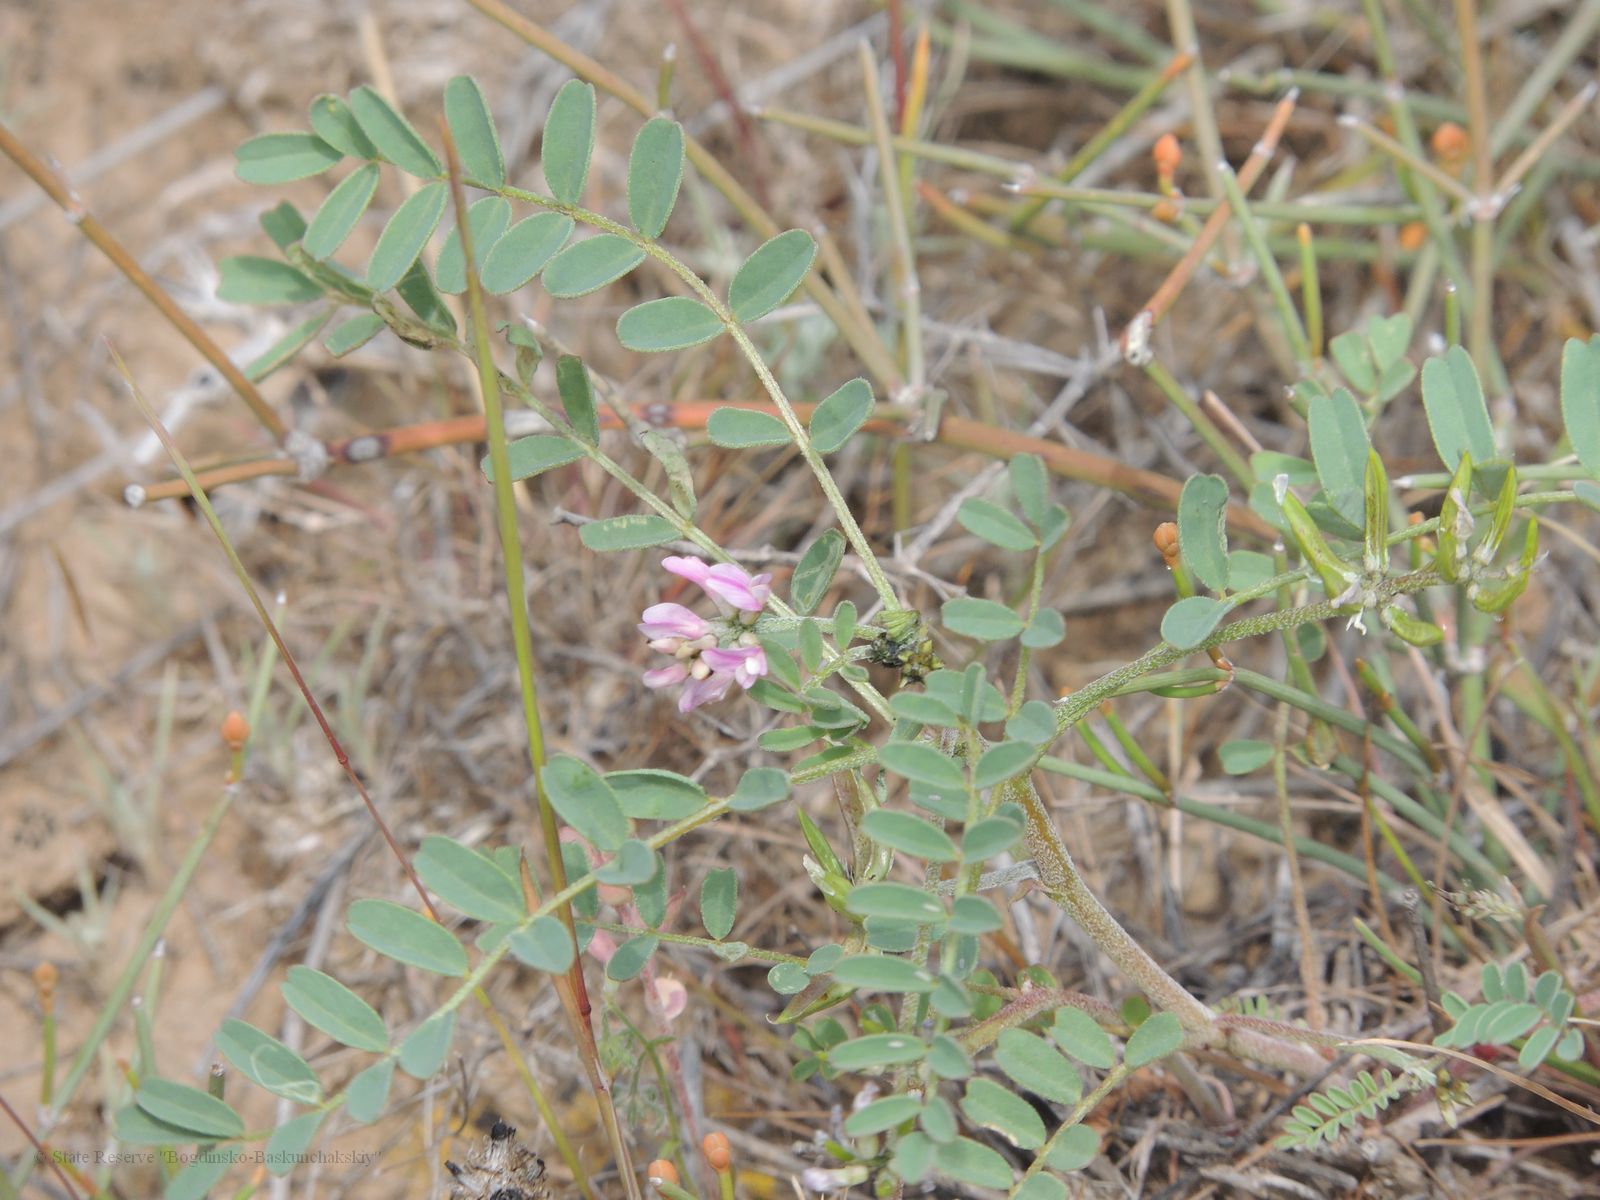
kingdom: Plantae
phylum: Tracheophyta
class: Magnoliopsida
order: Fabales
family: Fabaceae
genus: Astragalus
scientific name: Astragalus oxyglottis
